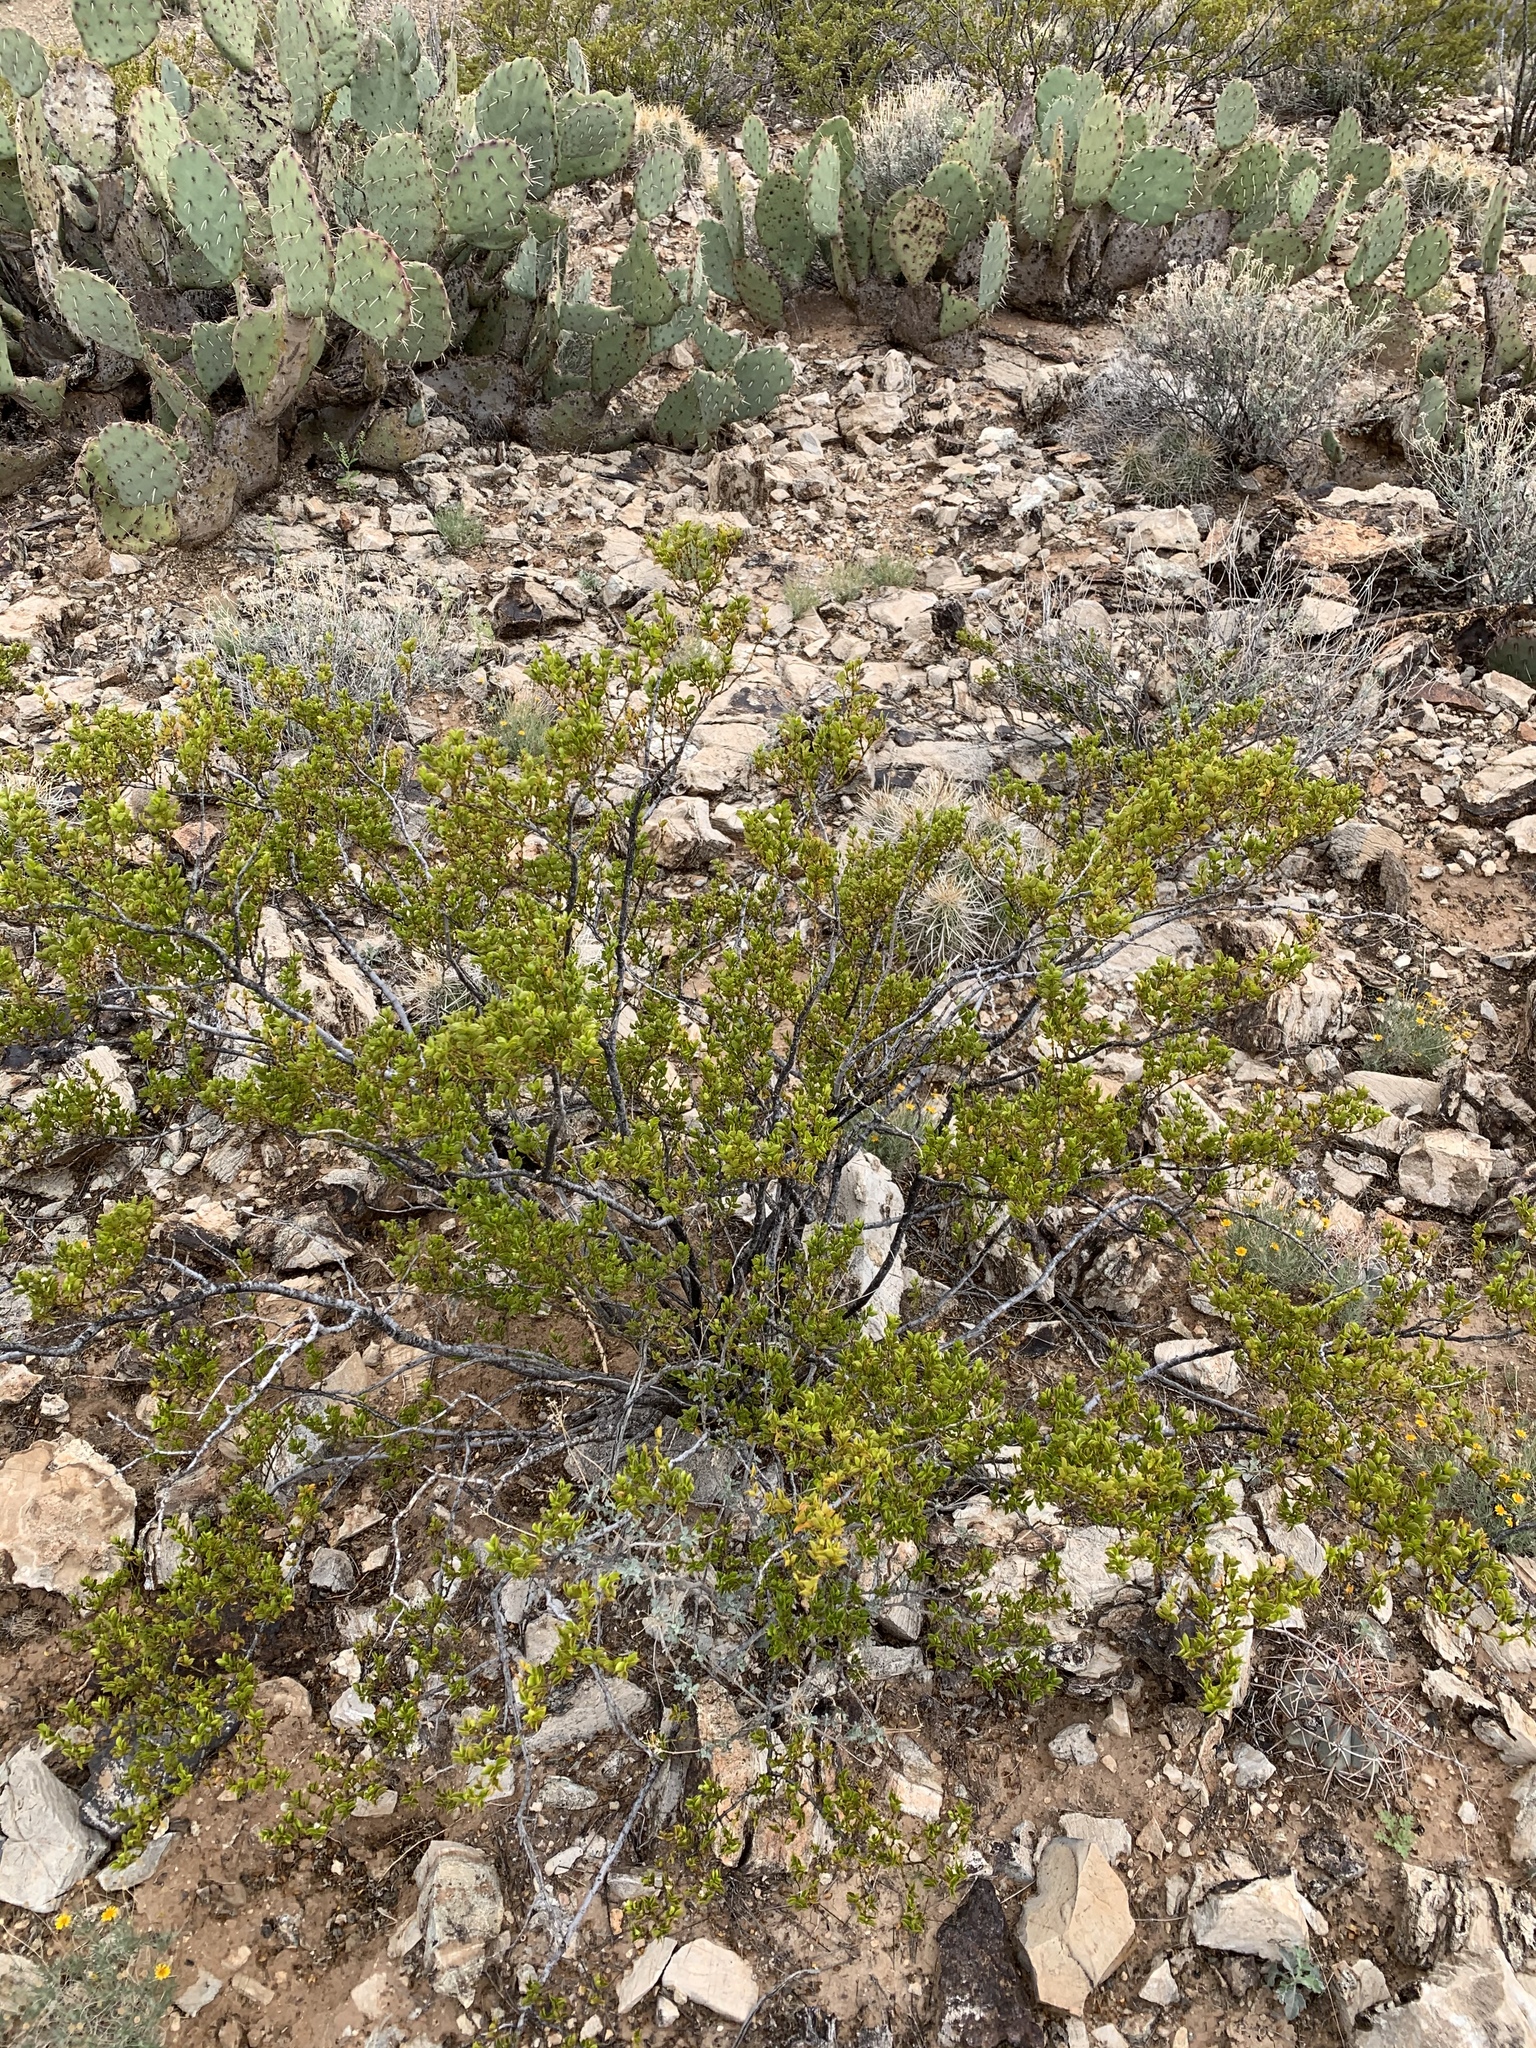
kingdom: Plantae
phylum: Tracheophyta
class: Magnoliopsida
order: Zygophyllales
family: Zygophyllaceae
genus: Larrea
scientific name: Larrea tridentata
